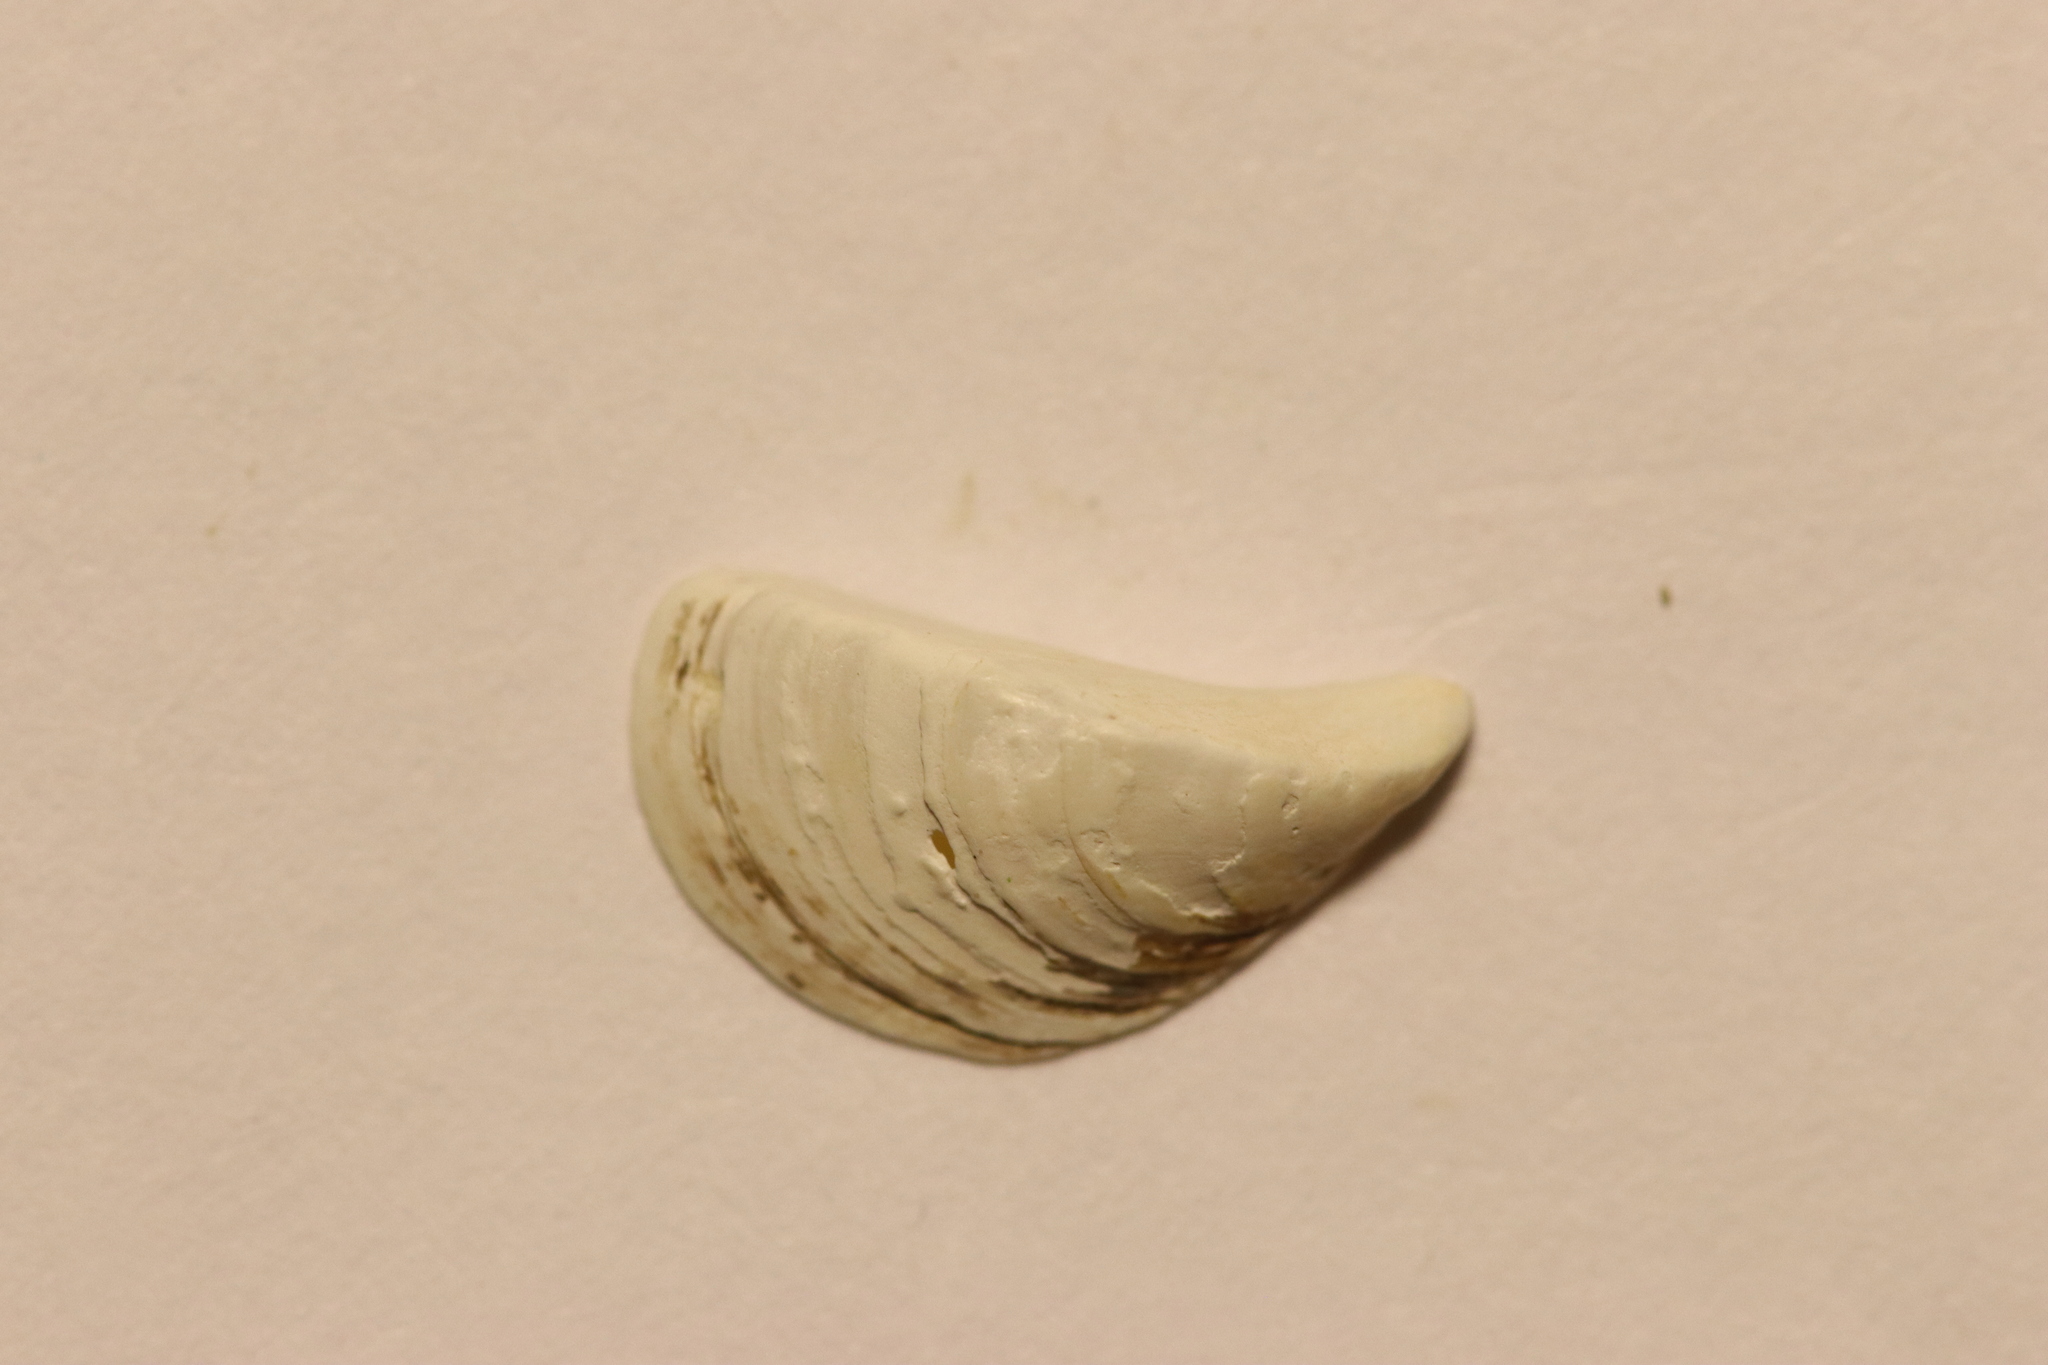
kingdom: Animalia
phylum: Mollusca
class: Bivalvia
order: Myida
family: Dreissenidae
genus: Dreissena
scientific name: Dreissena polymorpha
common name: Zebra mussel
